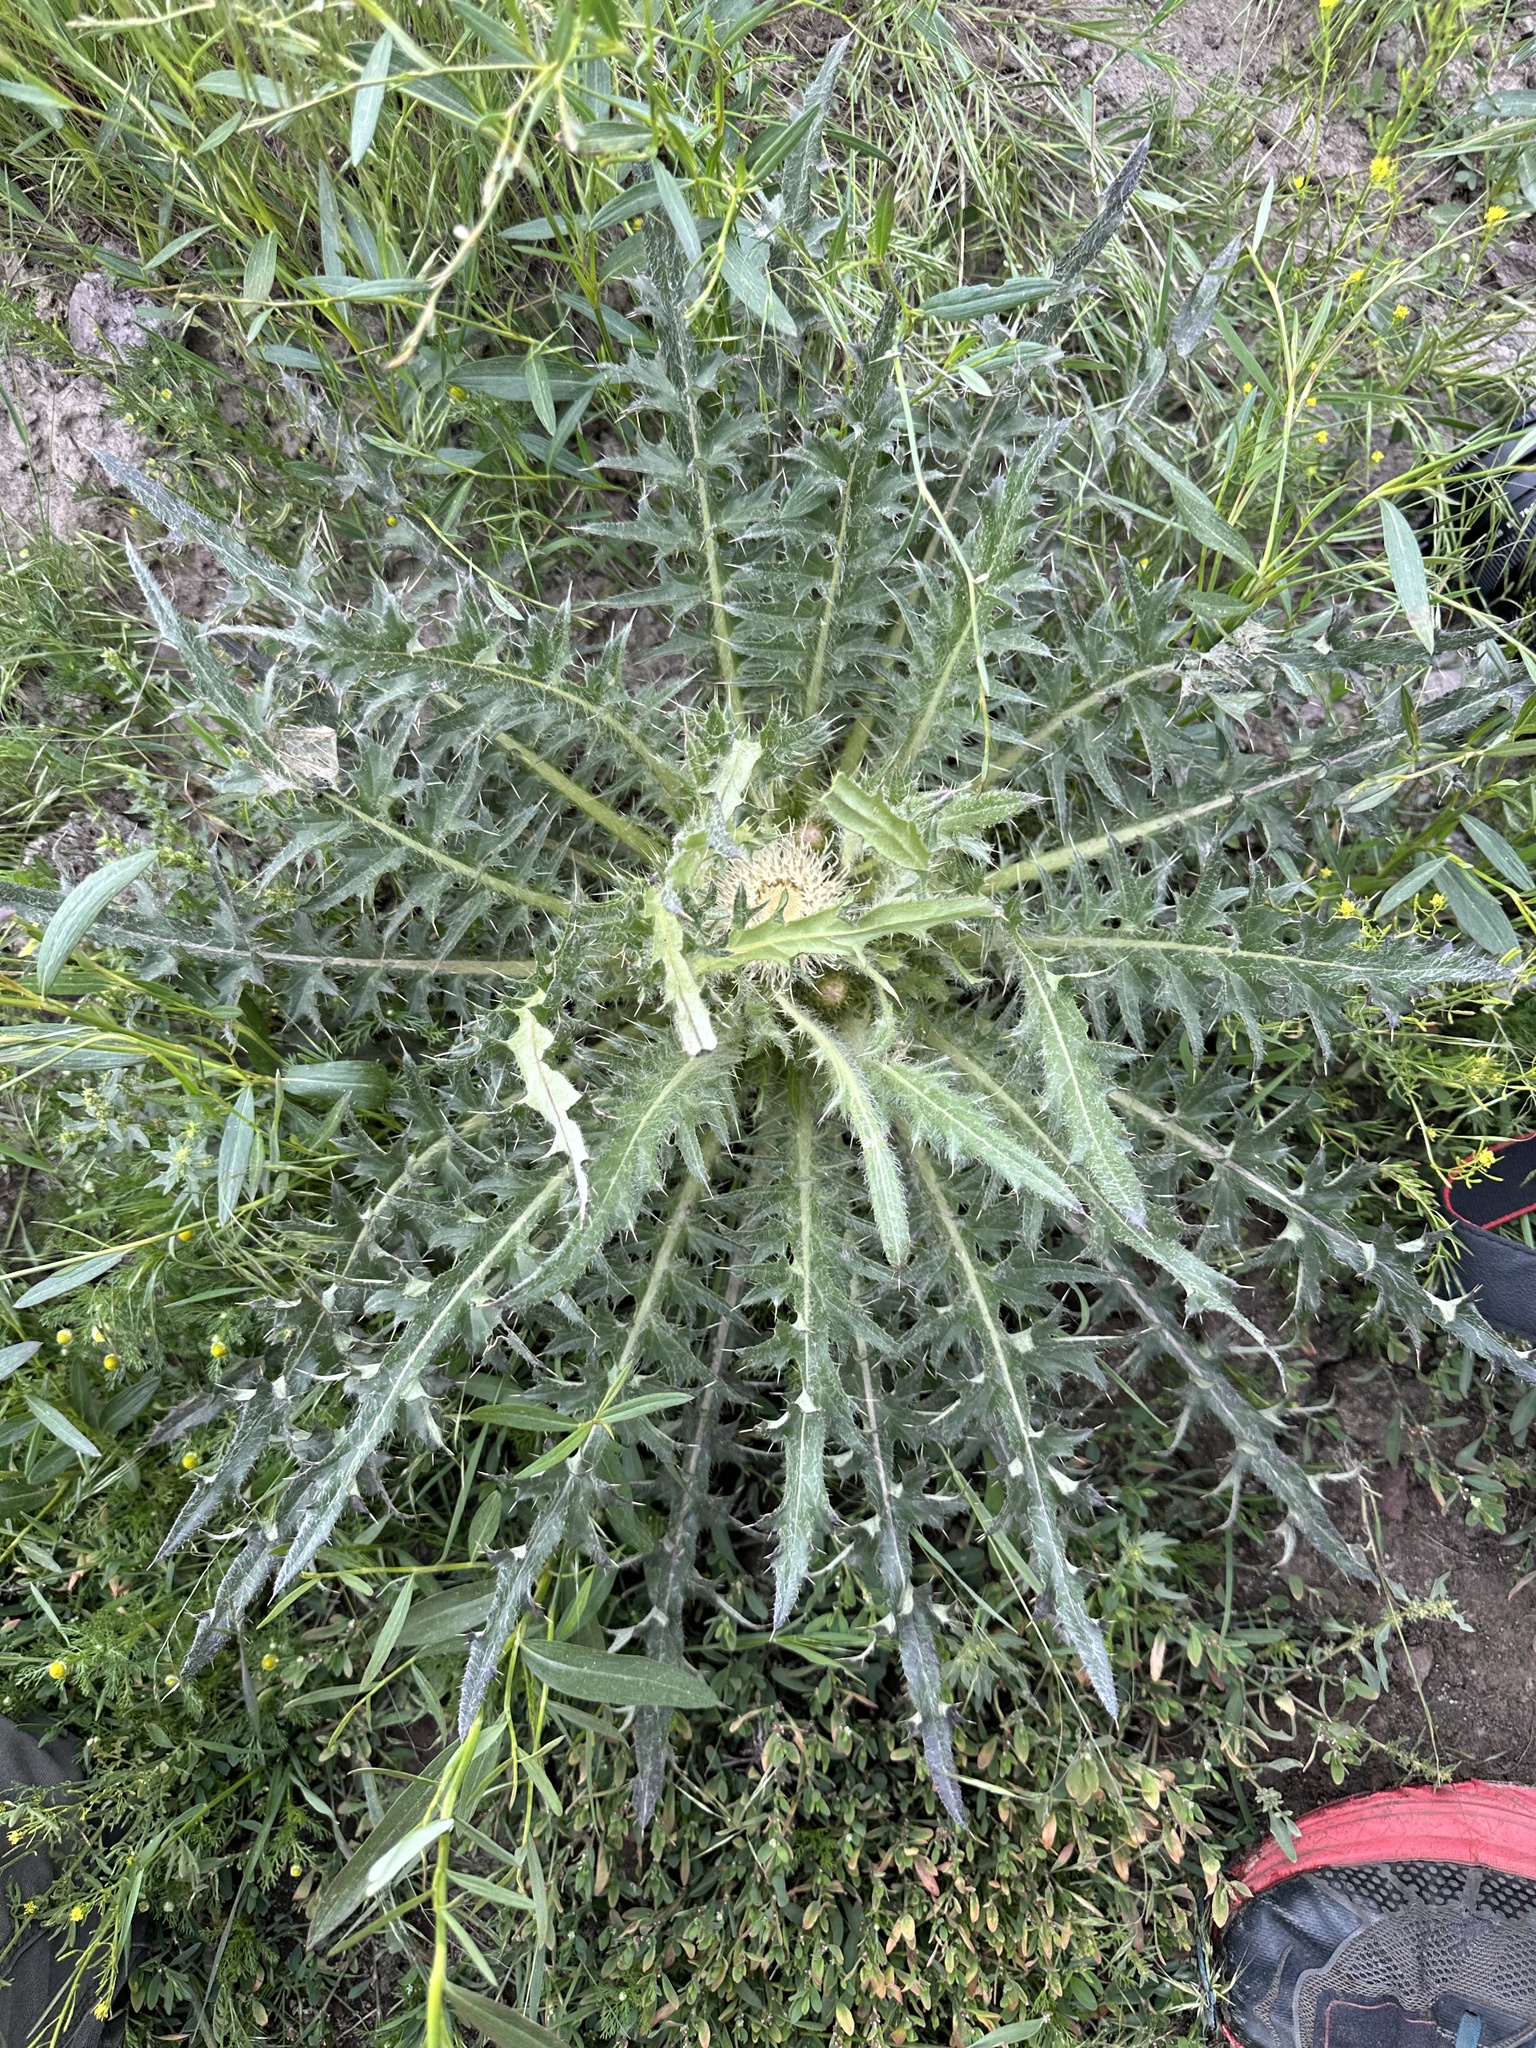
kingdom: Plantae
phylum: Tracheophyta
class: Magnoliopsida
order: Asterales
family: Asteraceae
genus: Cirsium
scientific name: Cirsium scariosum
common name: Meadow thistle
